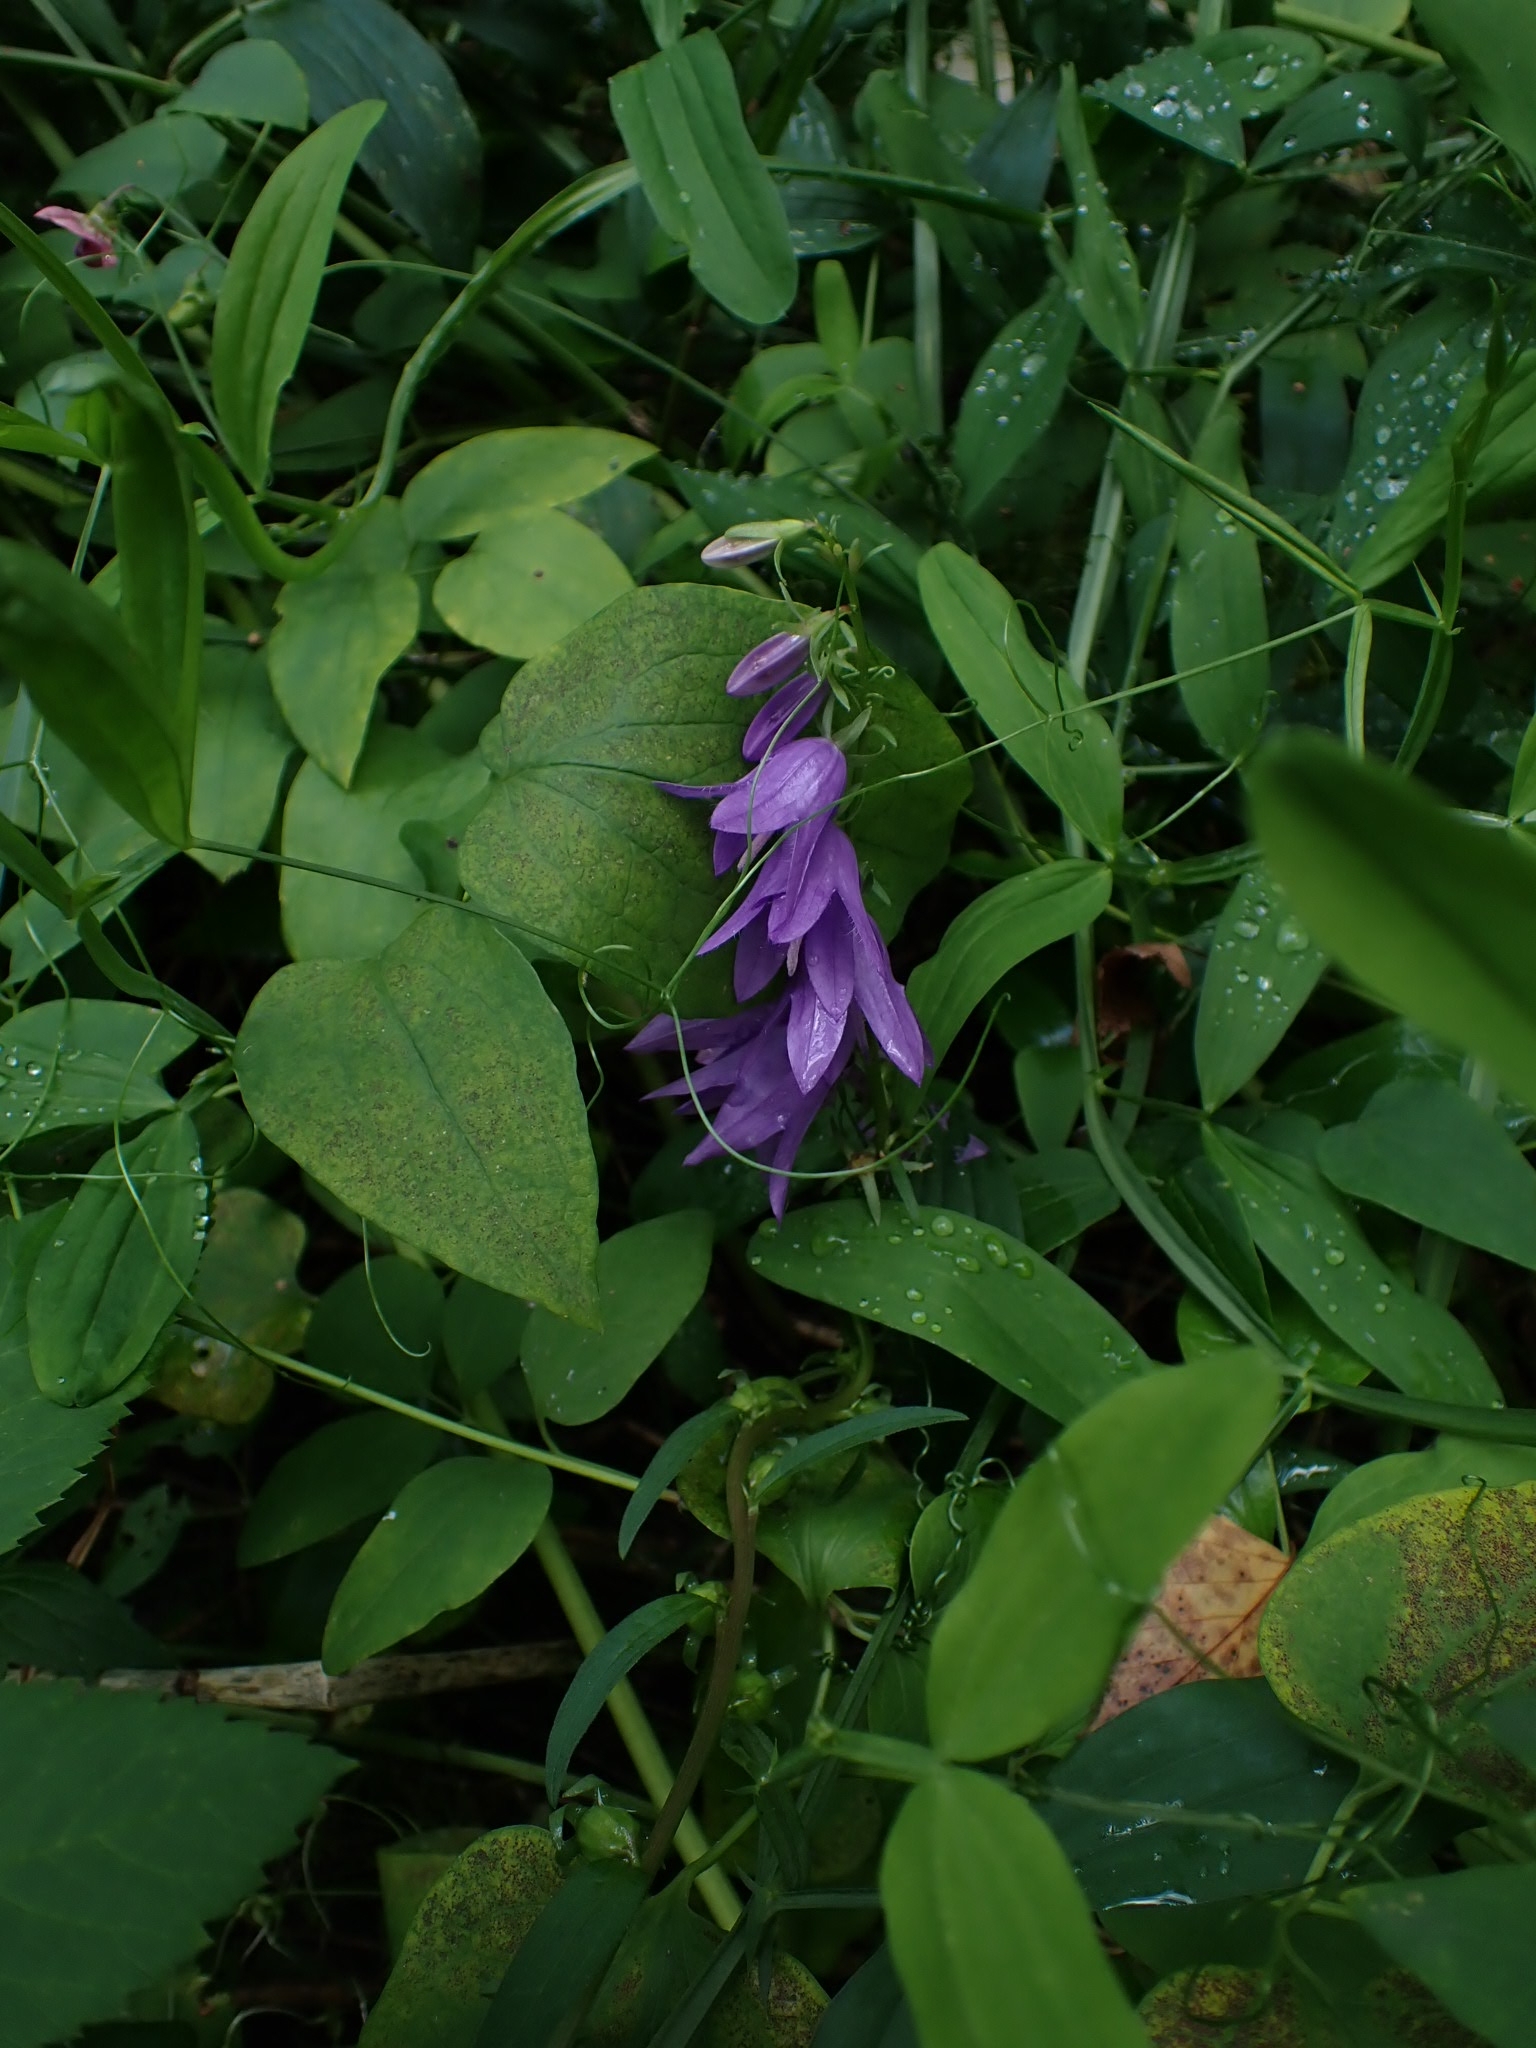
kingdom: Plantae
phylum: Tracheophyta
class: Magnoliopsida
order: Asterales
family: Campanulaceae
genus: Campanula
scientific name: Campanula rapunculoides
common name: Creeping bellflower
